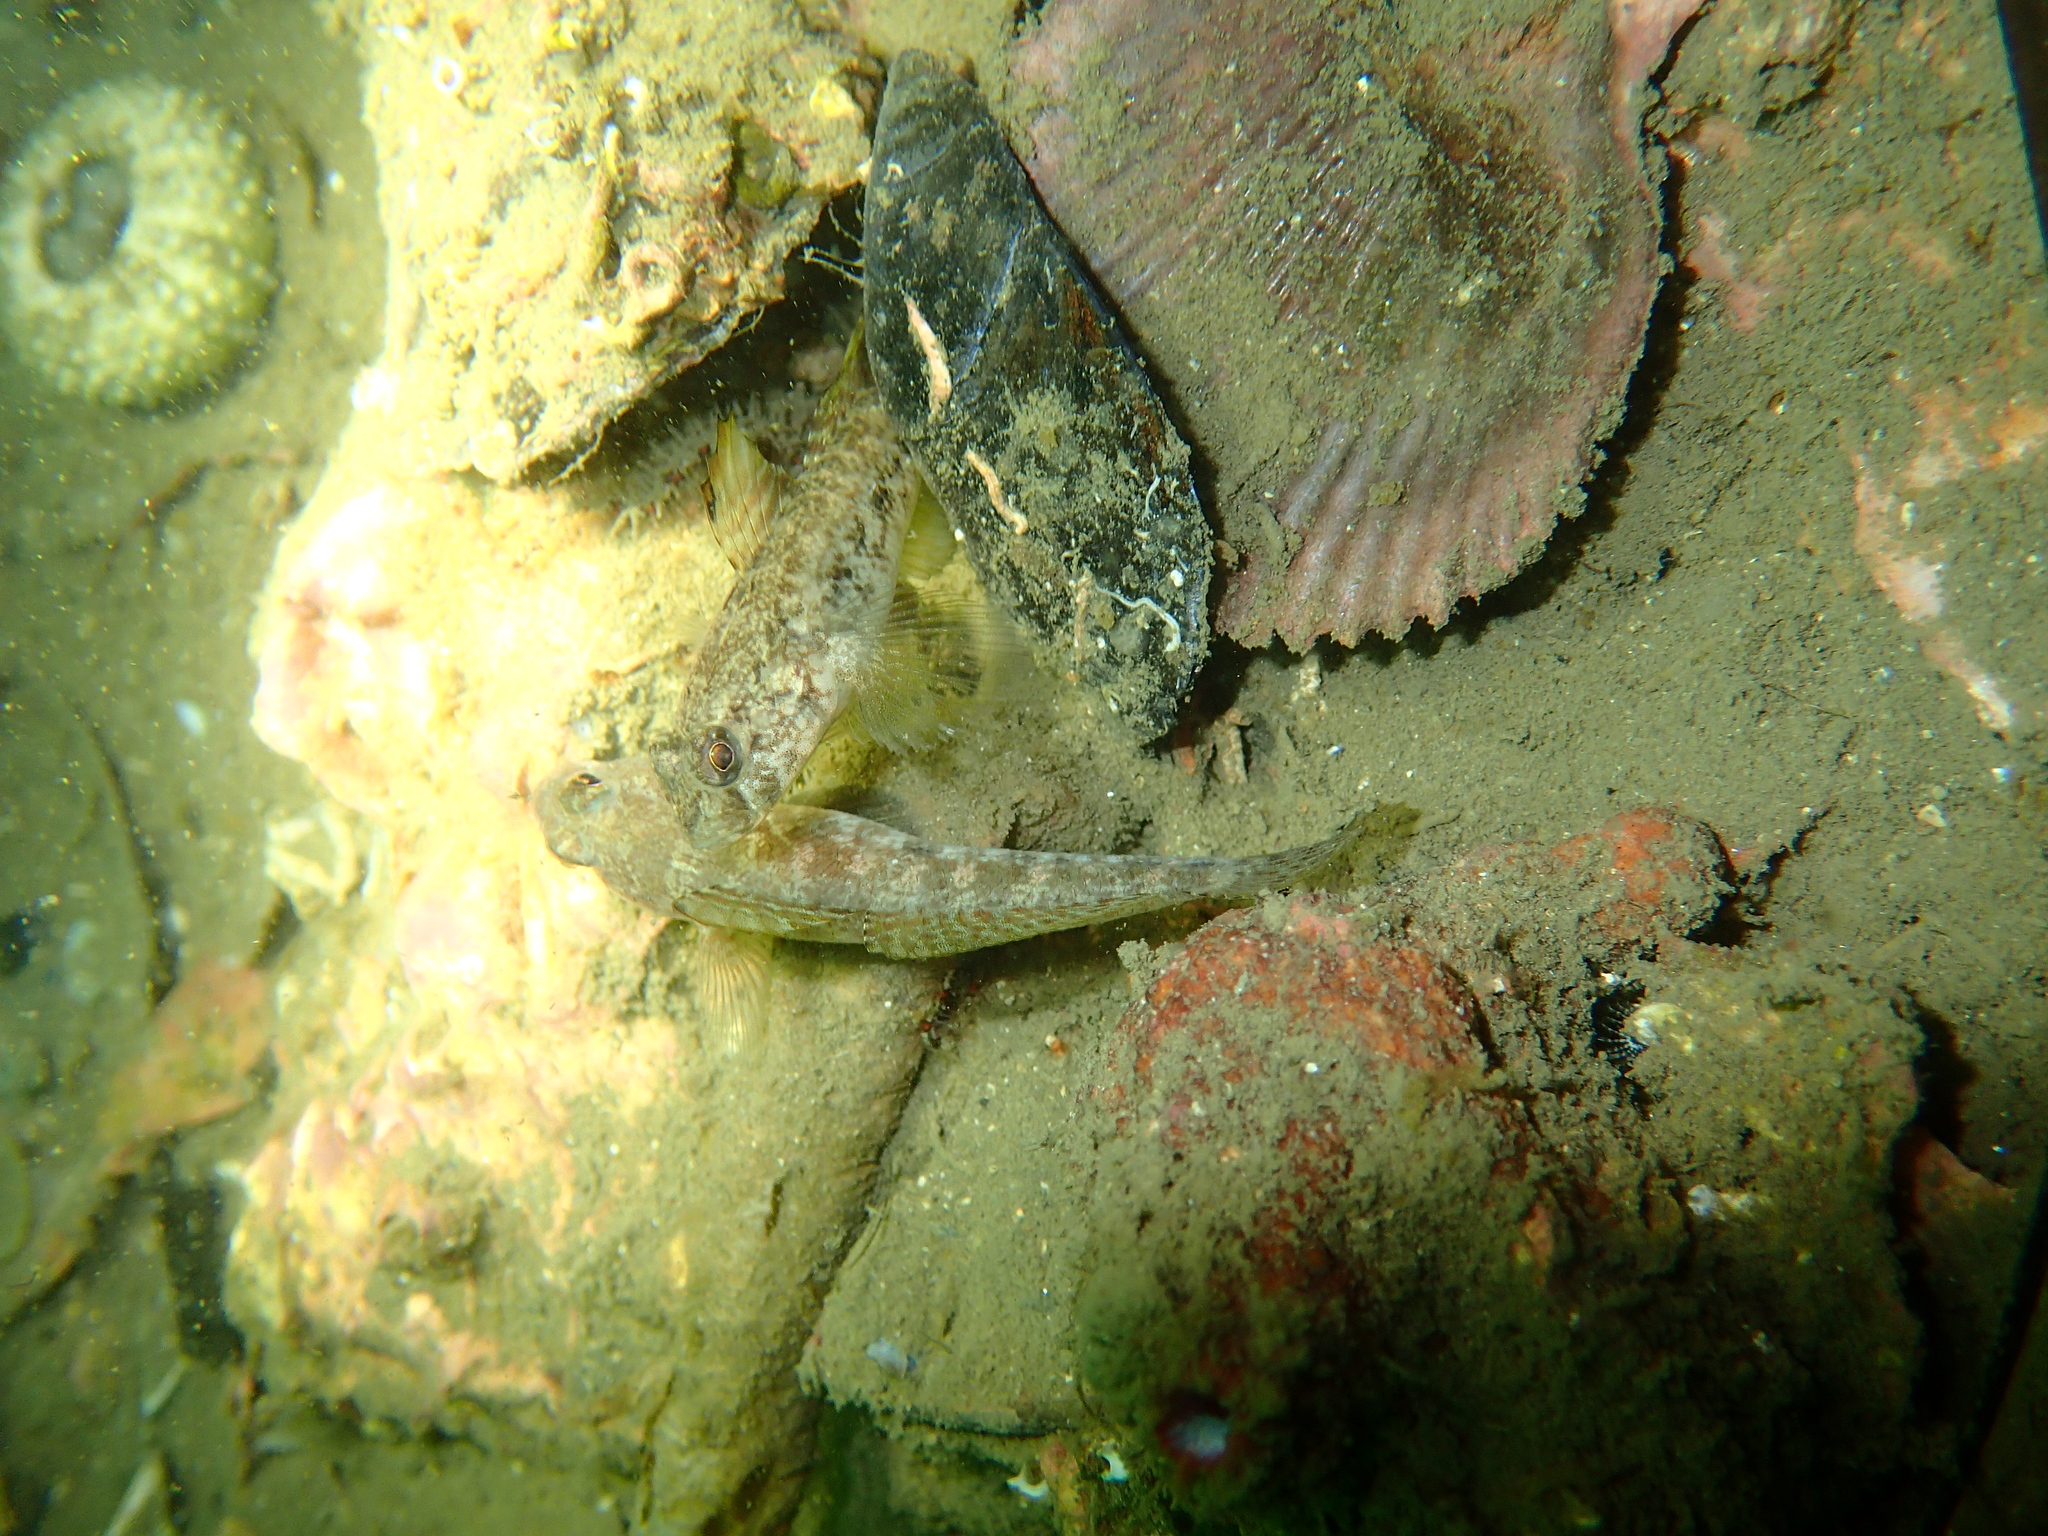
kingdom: Animalia
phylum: Chordata
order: Perciformes
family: Gobiidae
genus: Gobius
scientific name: Gobius niger
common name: Black goby
